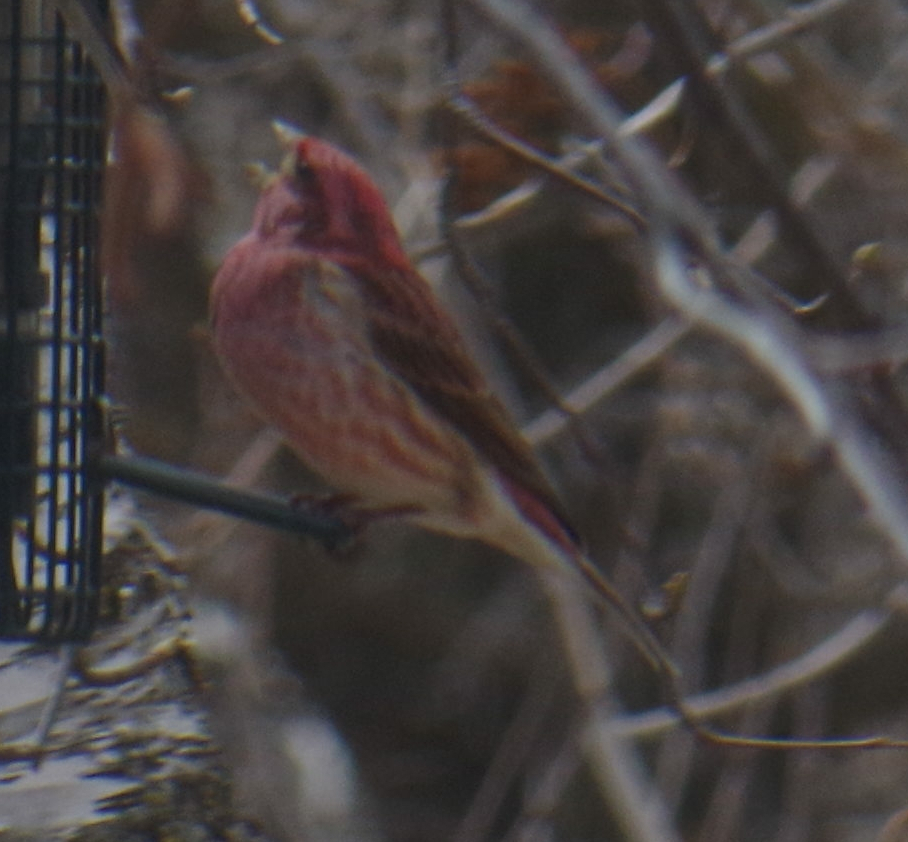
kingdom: Animalia
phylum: Chordata
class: Aves
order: Passeriformes
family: Fringillidae
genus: Haemorhous
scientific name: Haemorhous purpureus
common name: Purple finch
